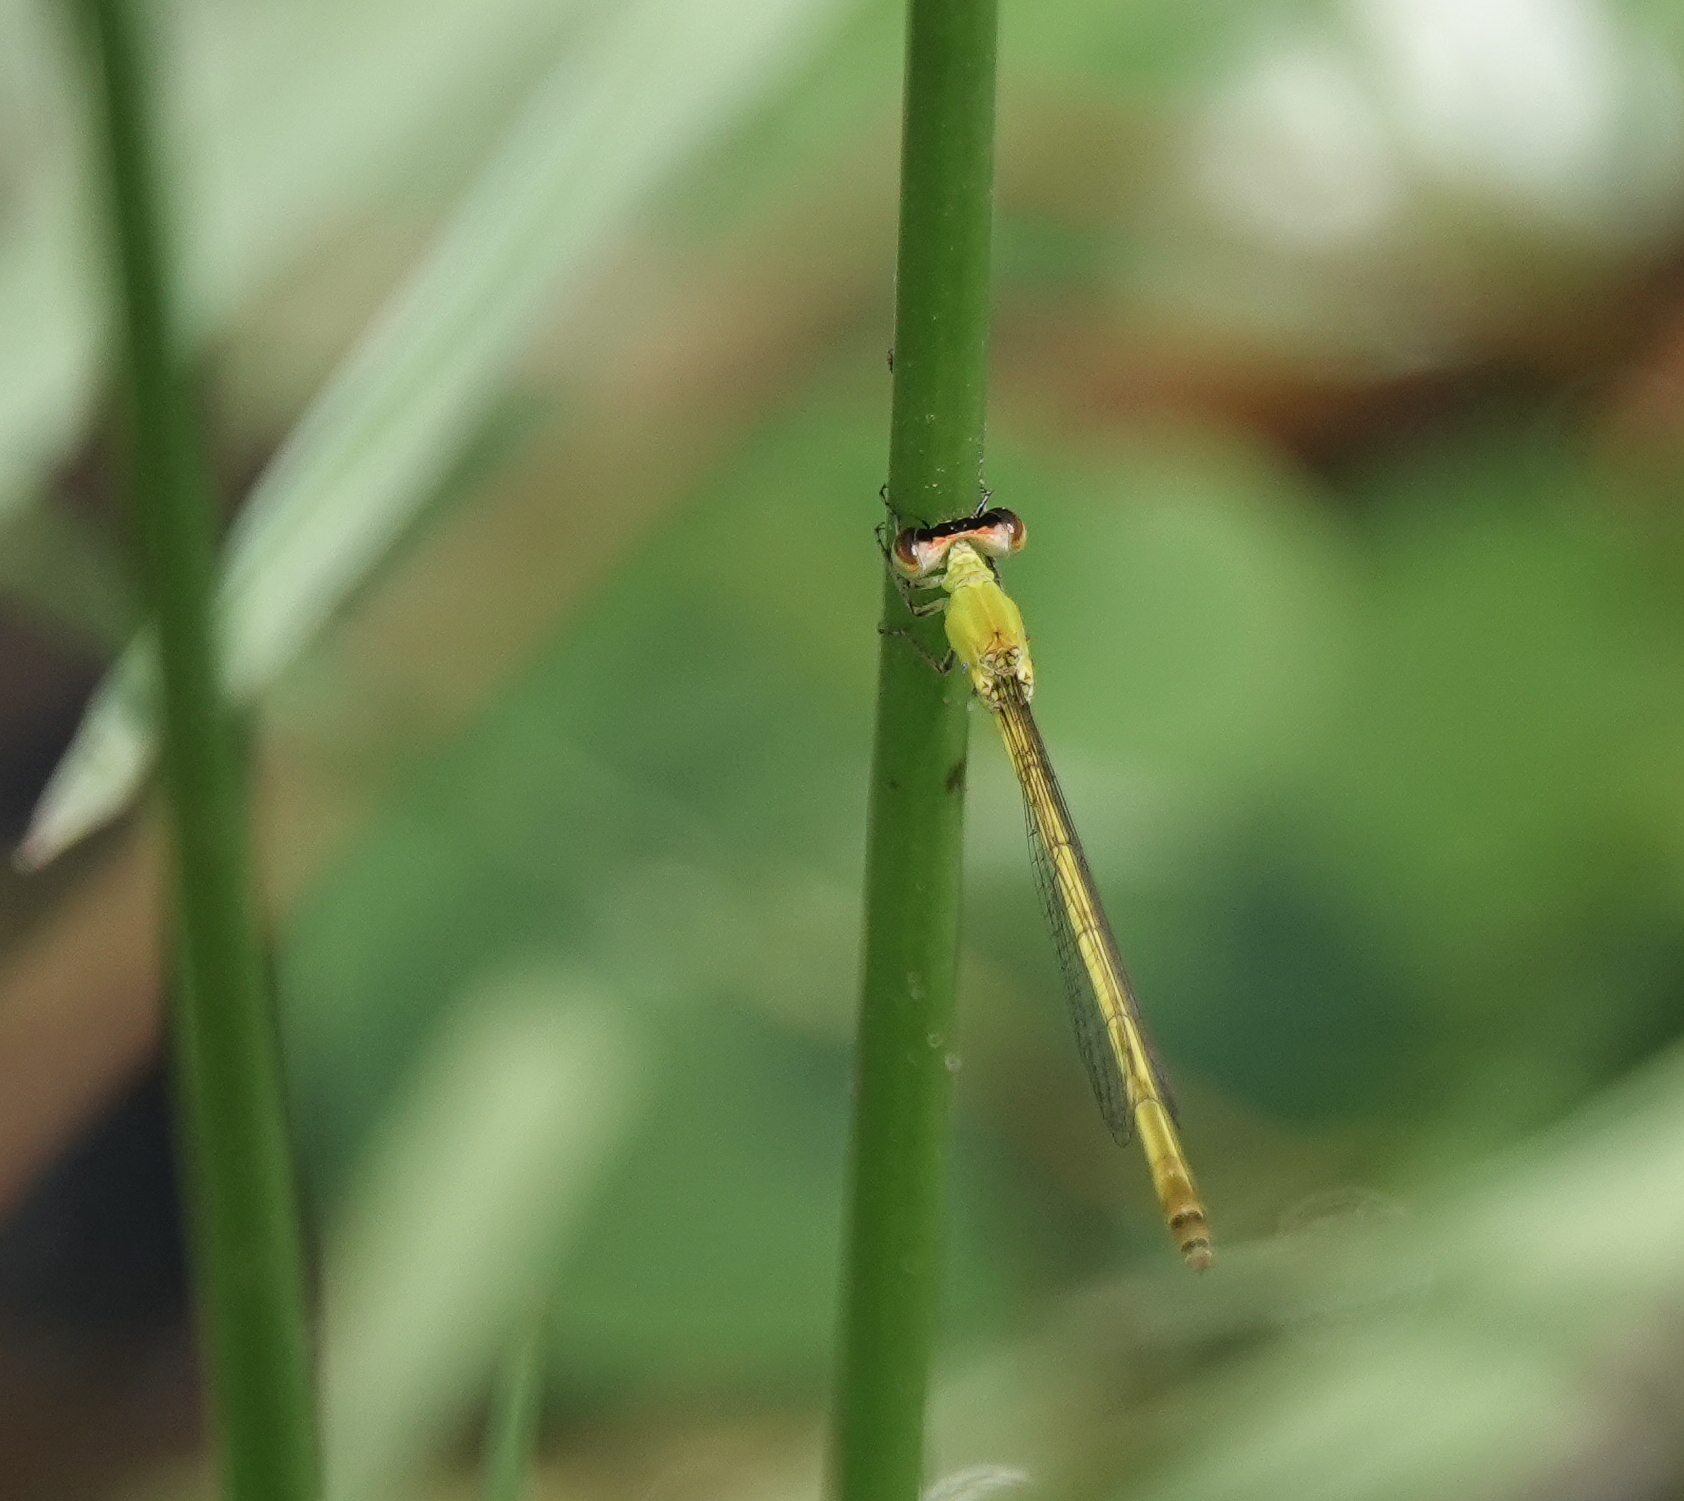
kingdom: Animalia
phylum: Arthropoda
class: Insecta
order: Odonata
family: Coenagrionidae
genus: Agriocnemis
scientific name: Agriocnemis kalinga
